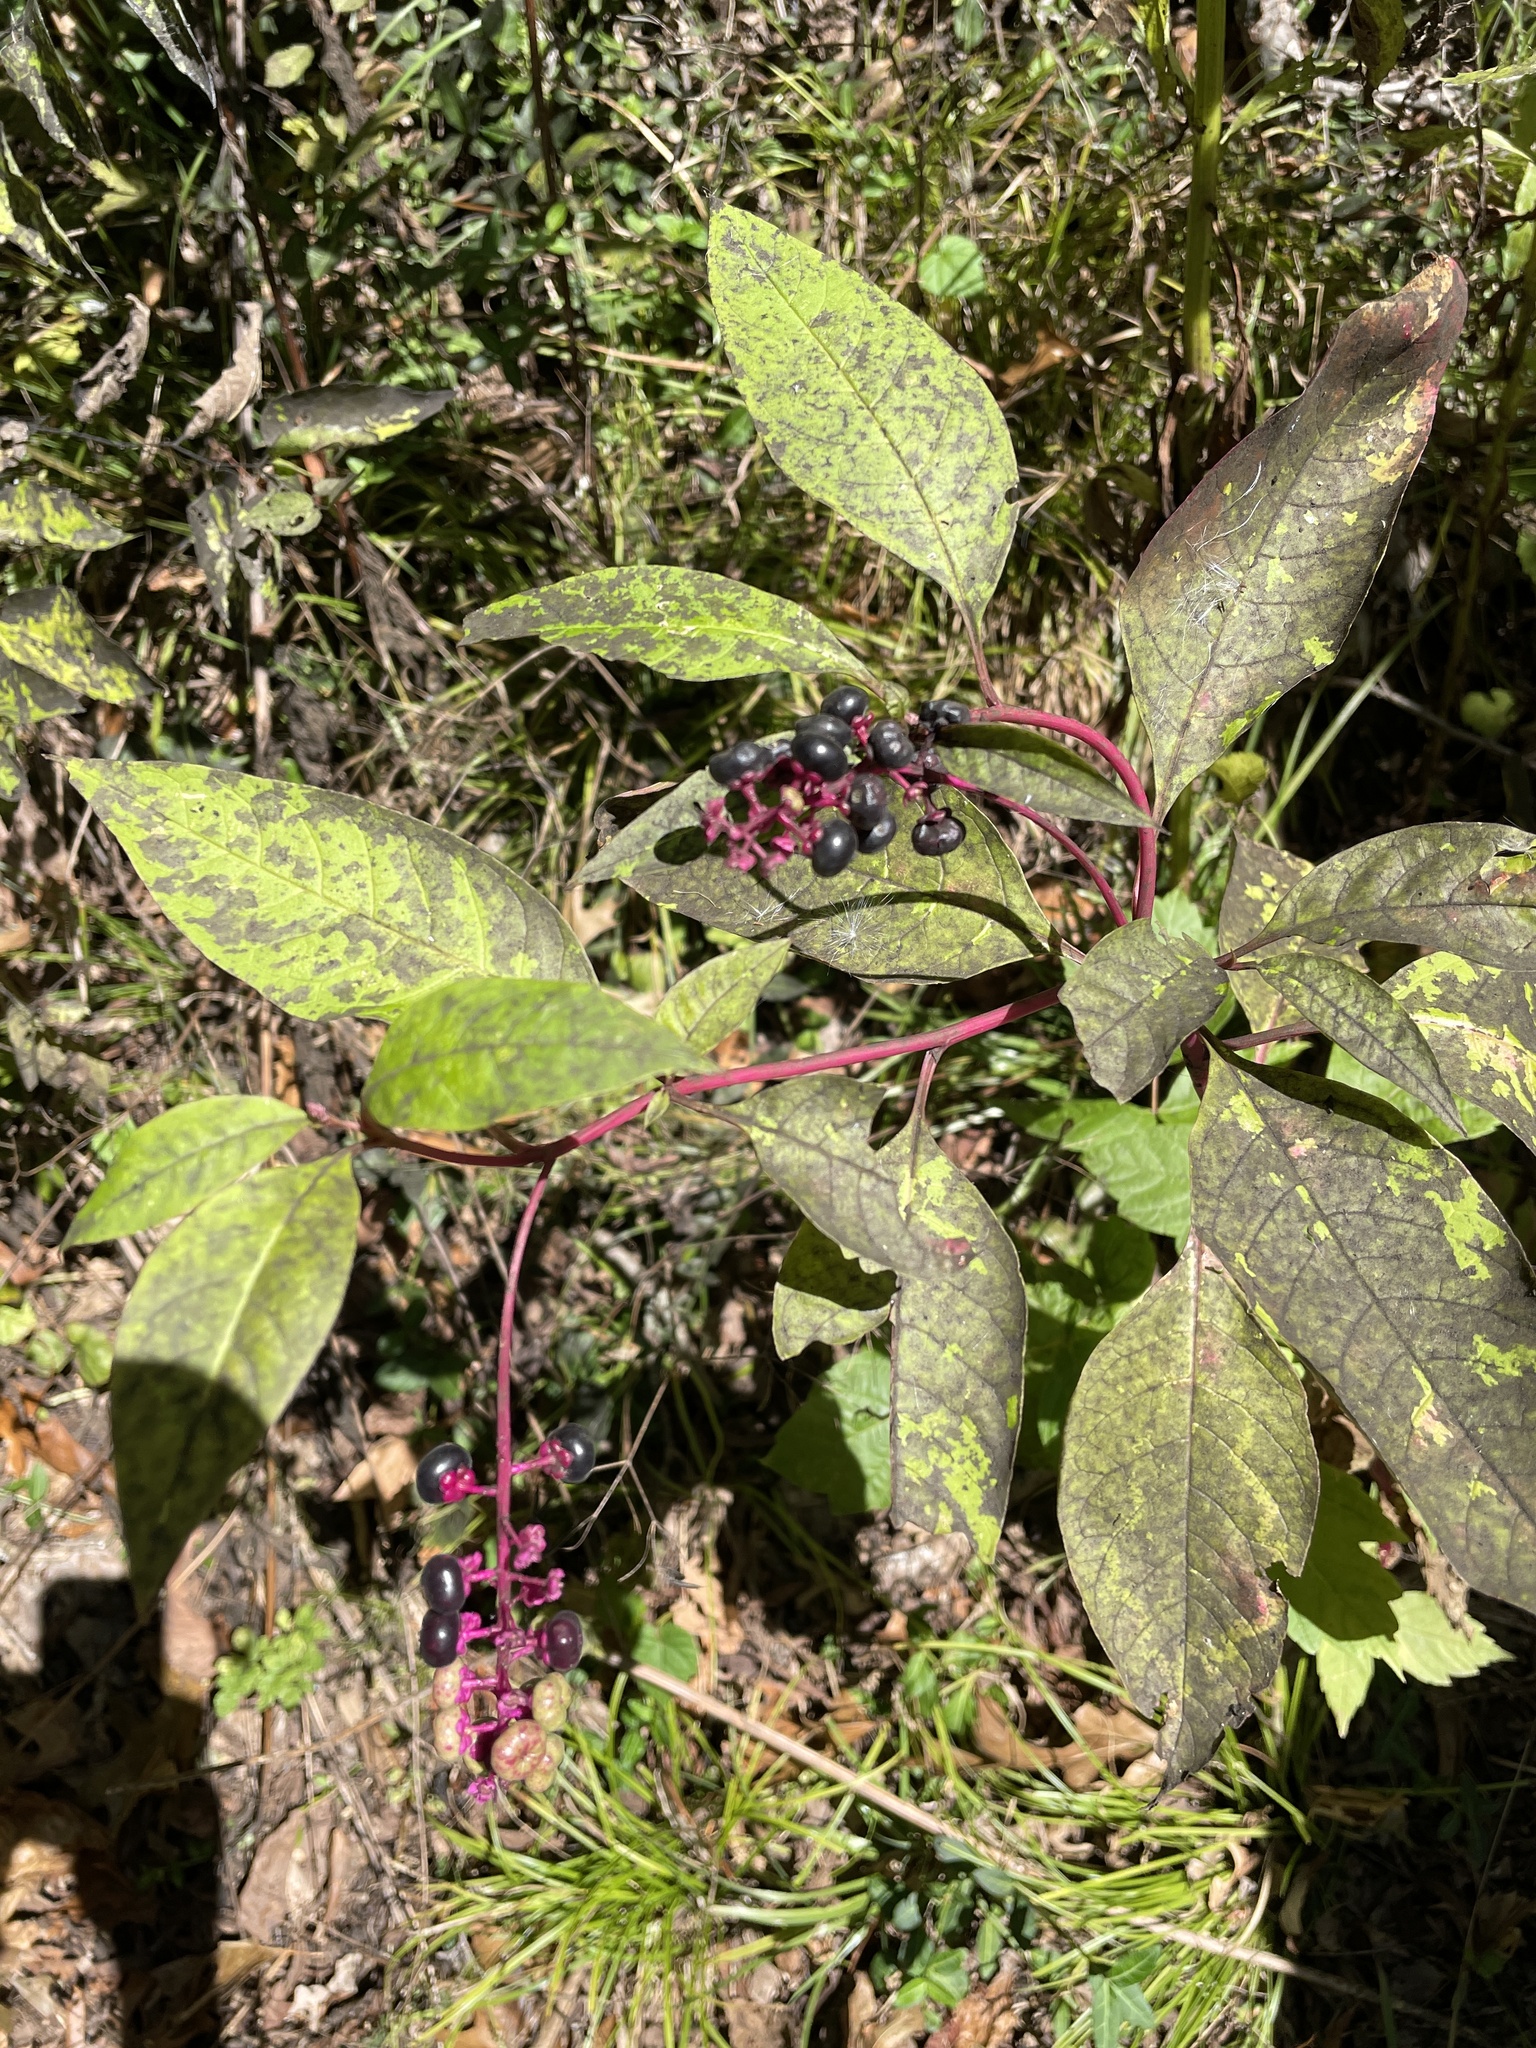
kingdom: Plantae
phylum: Tracheophyta
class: Magnoliopsida
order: Caryophyllales
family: Phytolaccaceae
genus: Phytolacca
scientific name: Phytolacca americana
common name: American pokeweed
